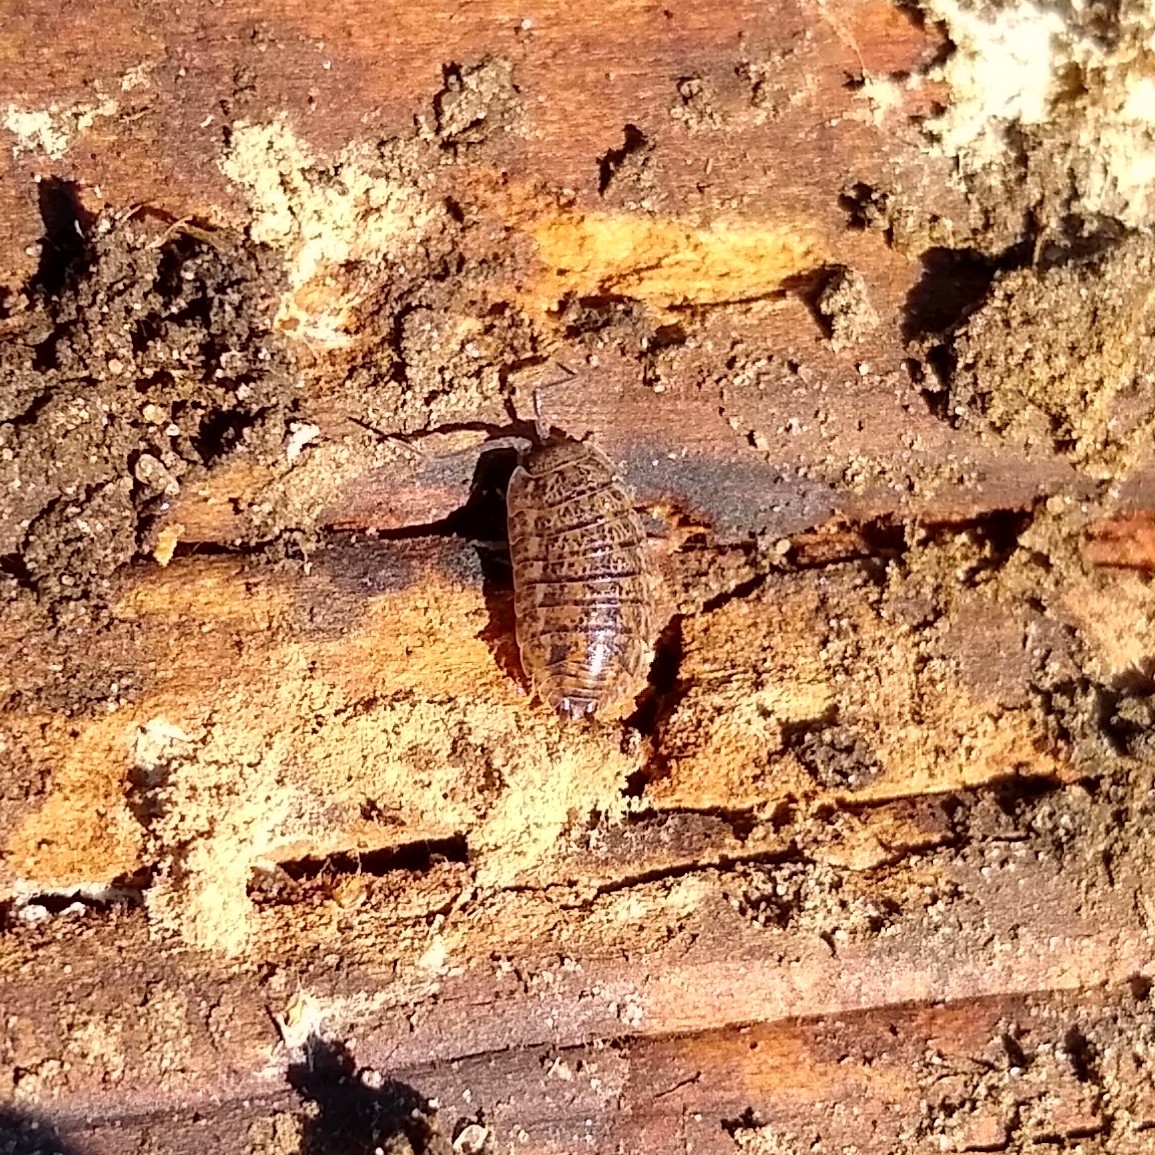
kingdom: Animalia
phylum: Arthropoda
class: Malacostraca
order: Isopoda
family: Trachelipodidae
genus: Trachelipus
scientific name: Trachelipus rathkii
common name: Isopod
